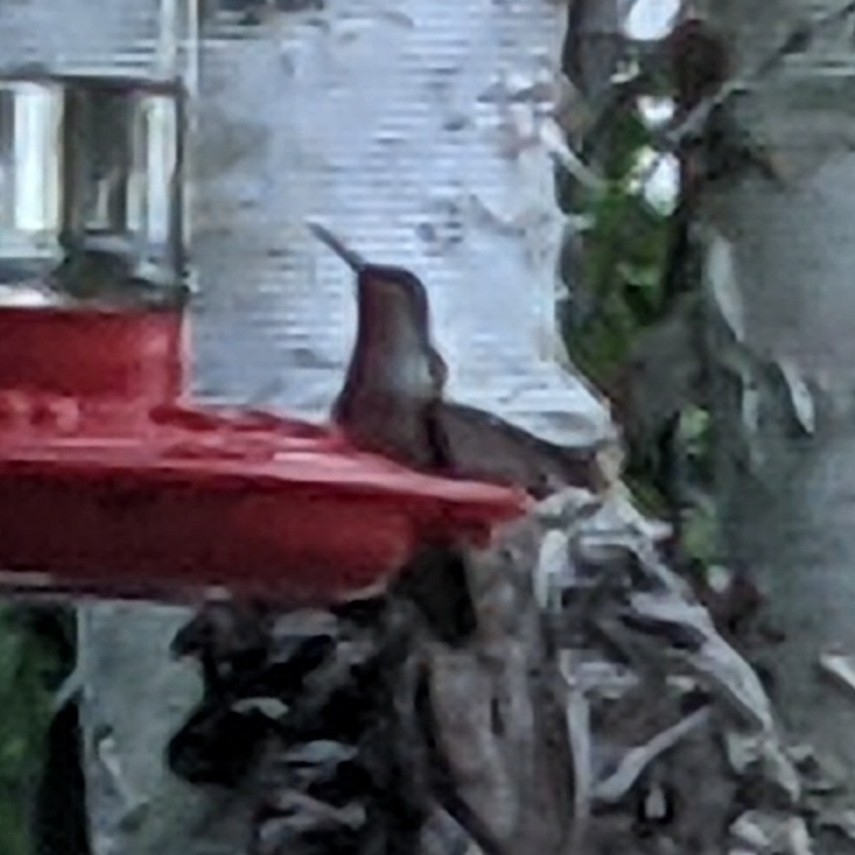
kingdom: Animalia
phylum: Chordata
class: Aves
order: Apodiformes
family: Trochilidae
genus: Archilochus
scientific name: Archilochus colubris
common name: Ruby-throated hummingbird
